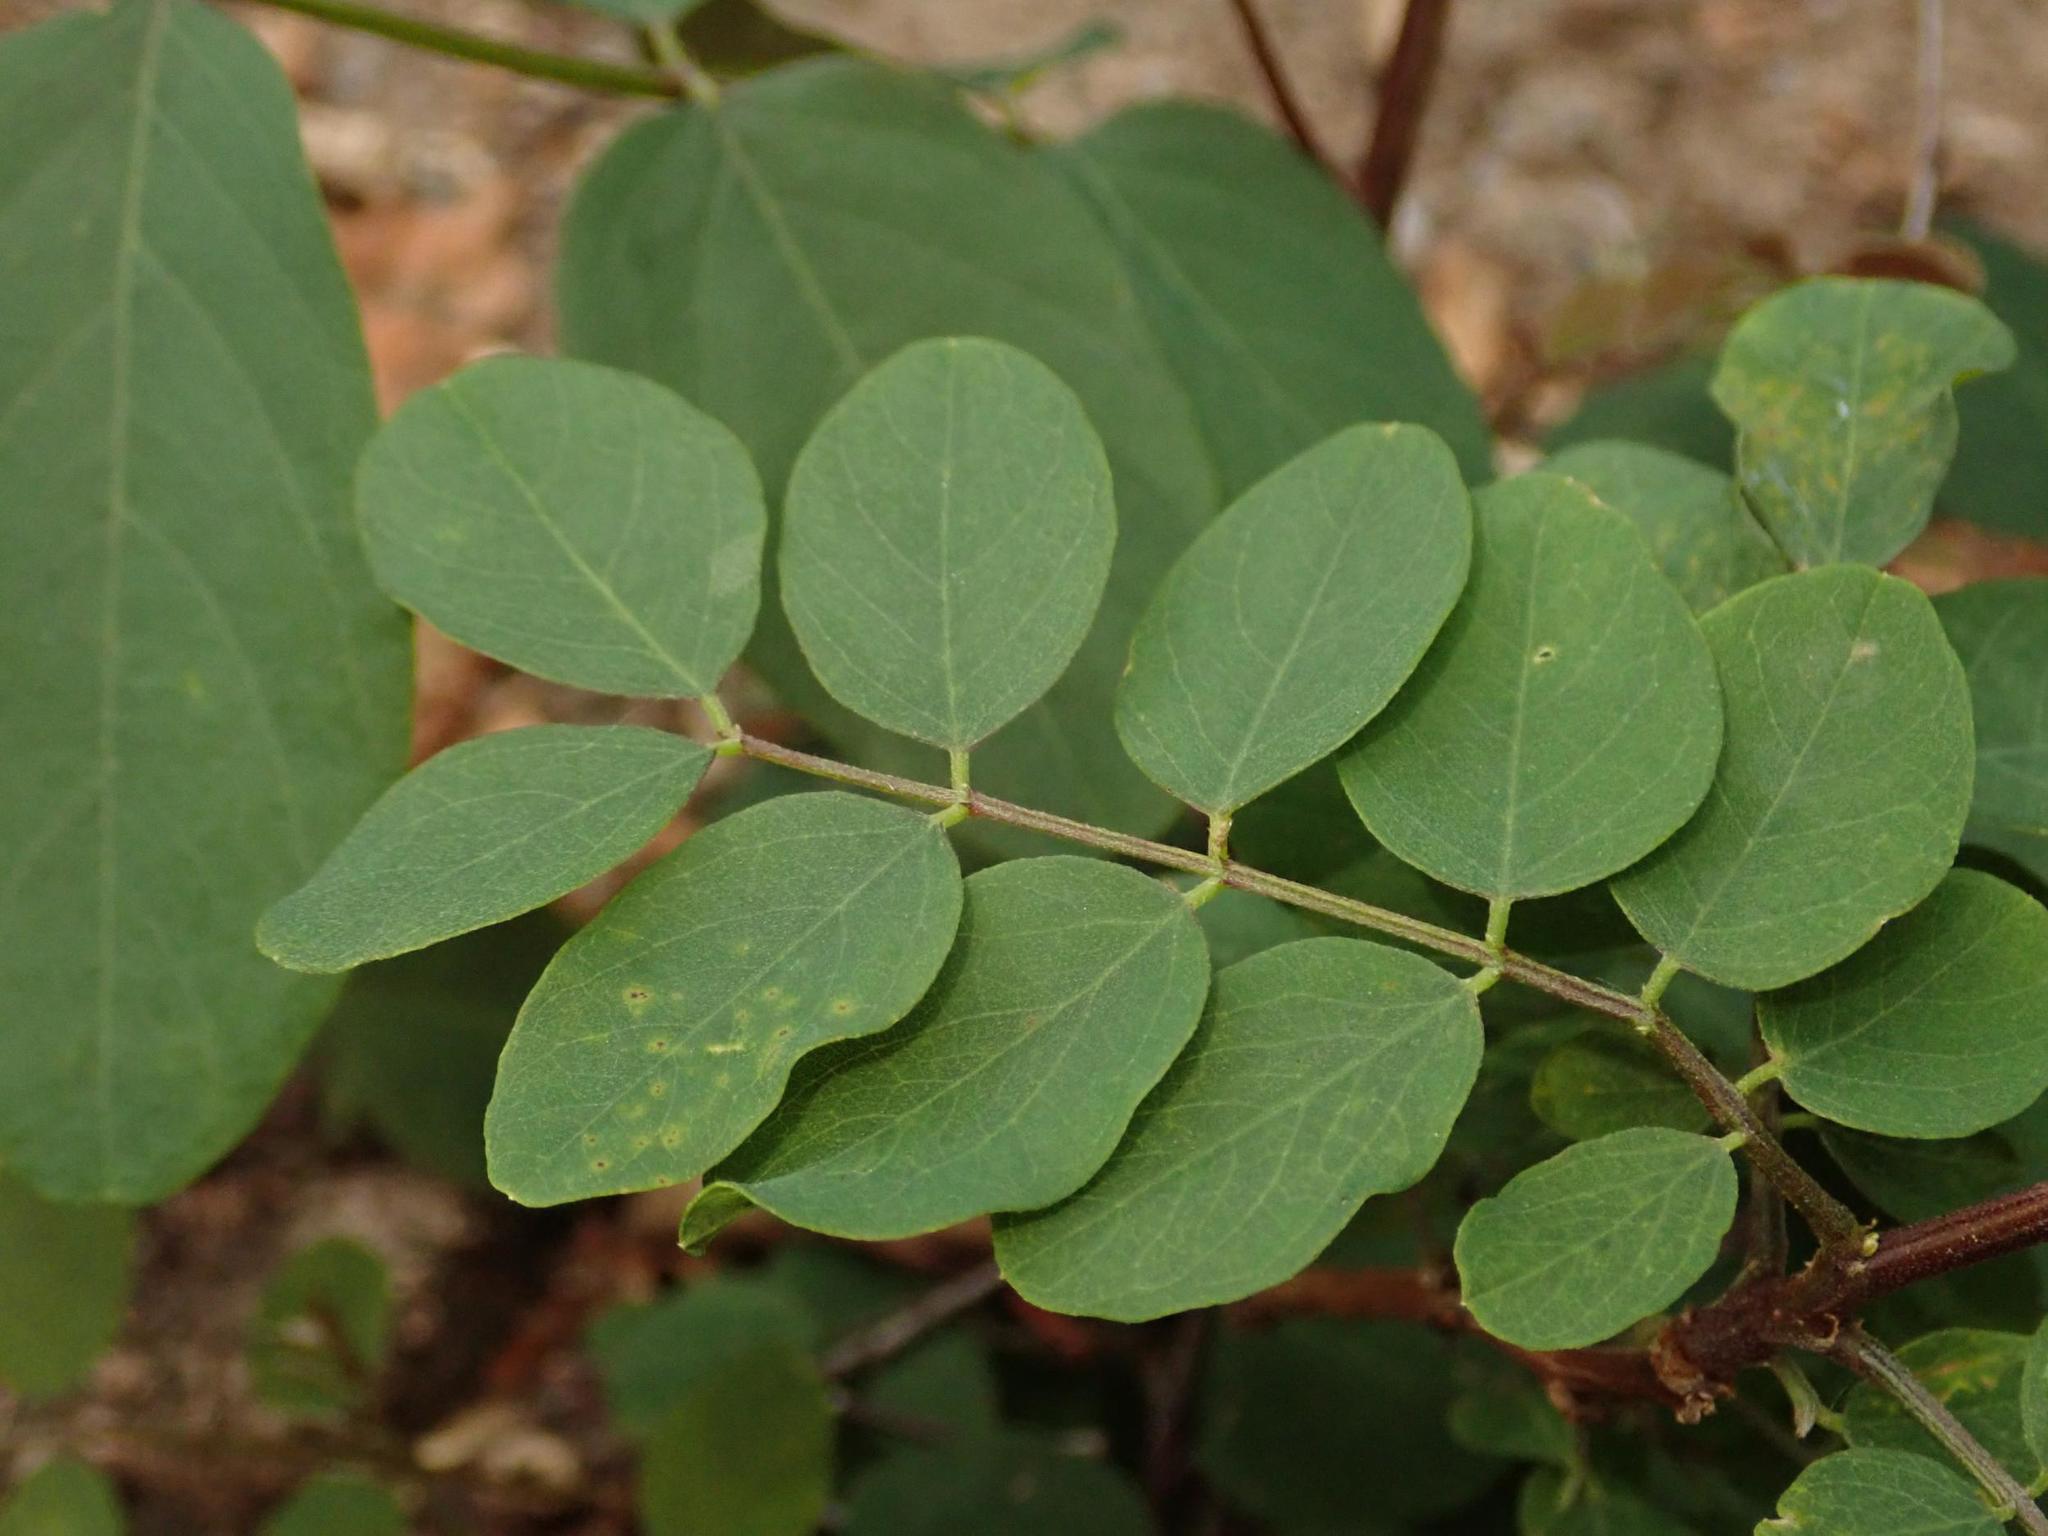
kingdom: Plantae
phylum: Tracheophyta
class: Magnoliopsida
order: Fabales
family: Fabaceae
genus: Robinia
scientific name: Robinia pseudoacacia
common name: Black locust
